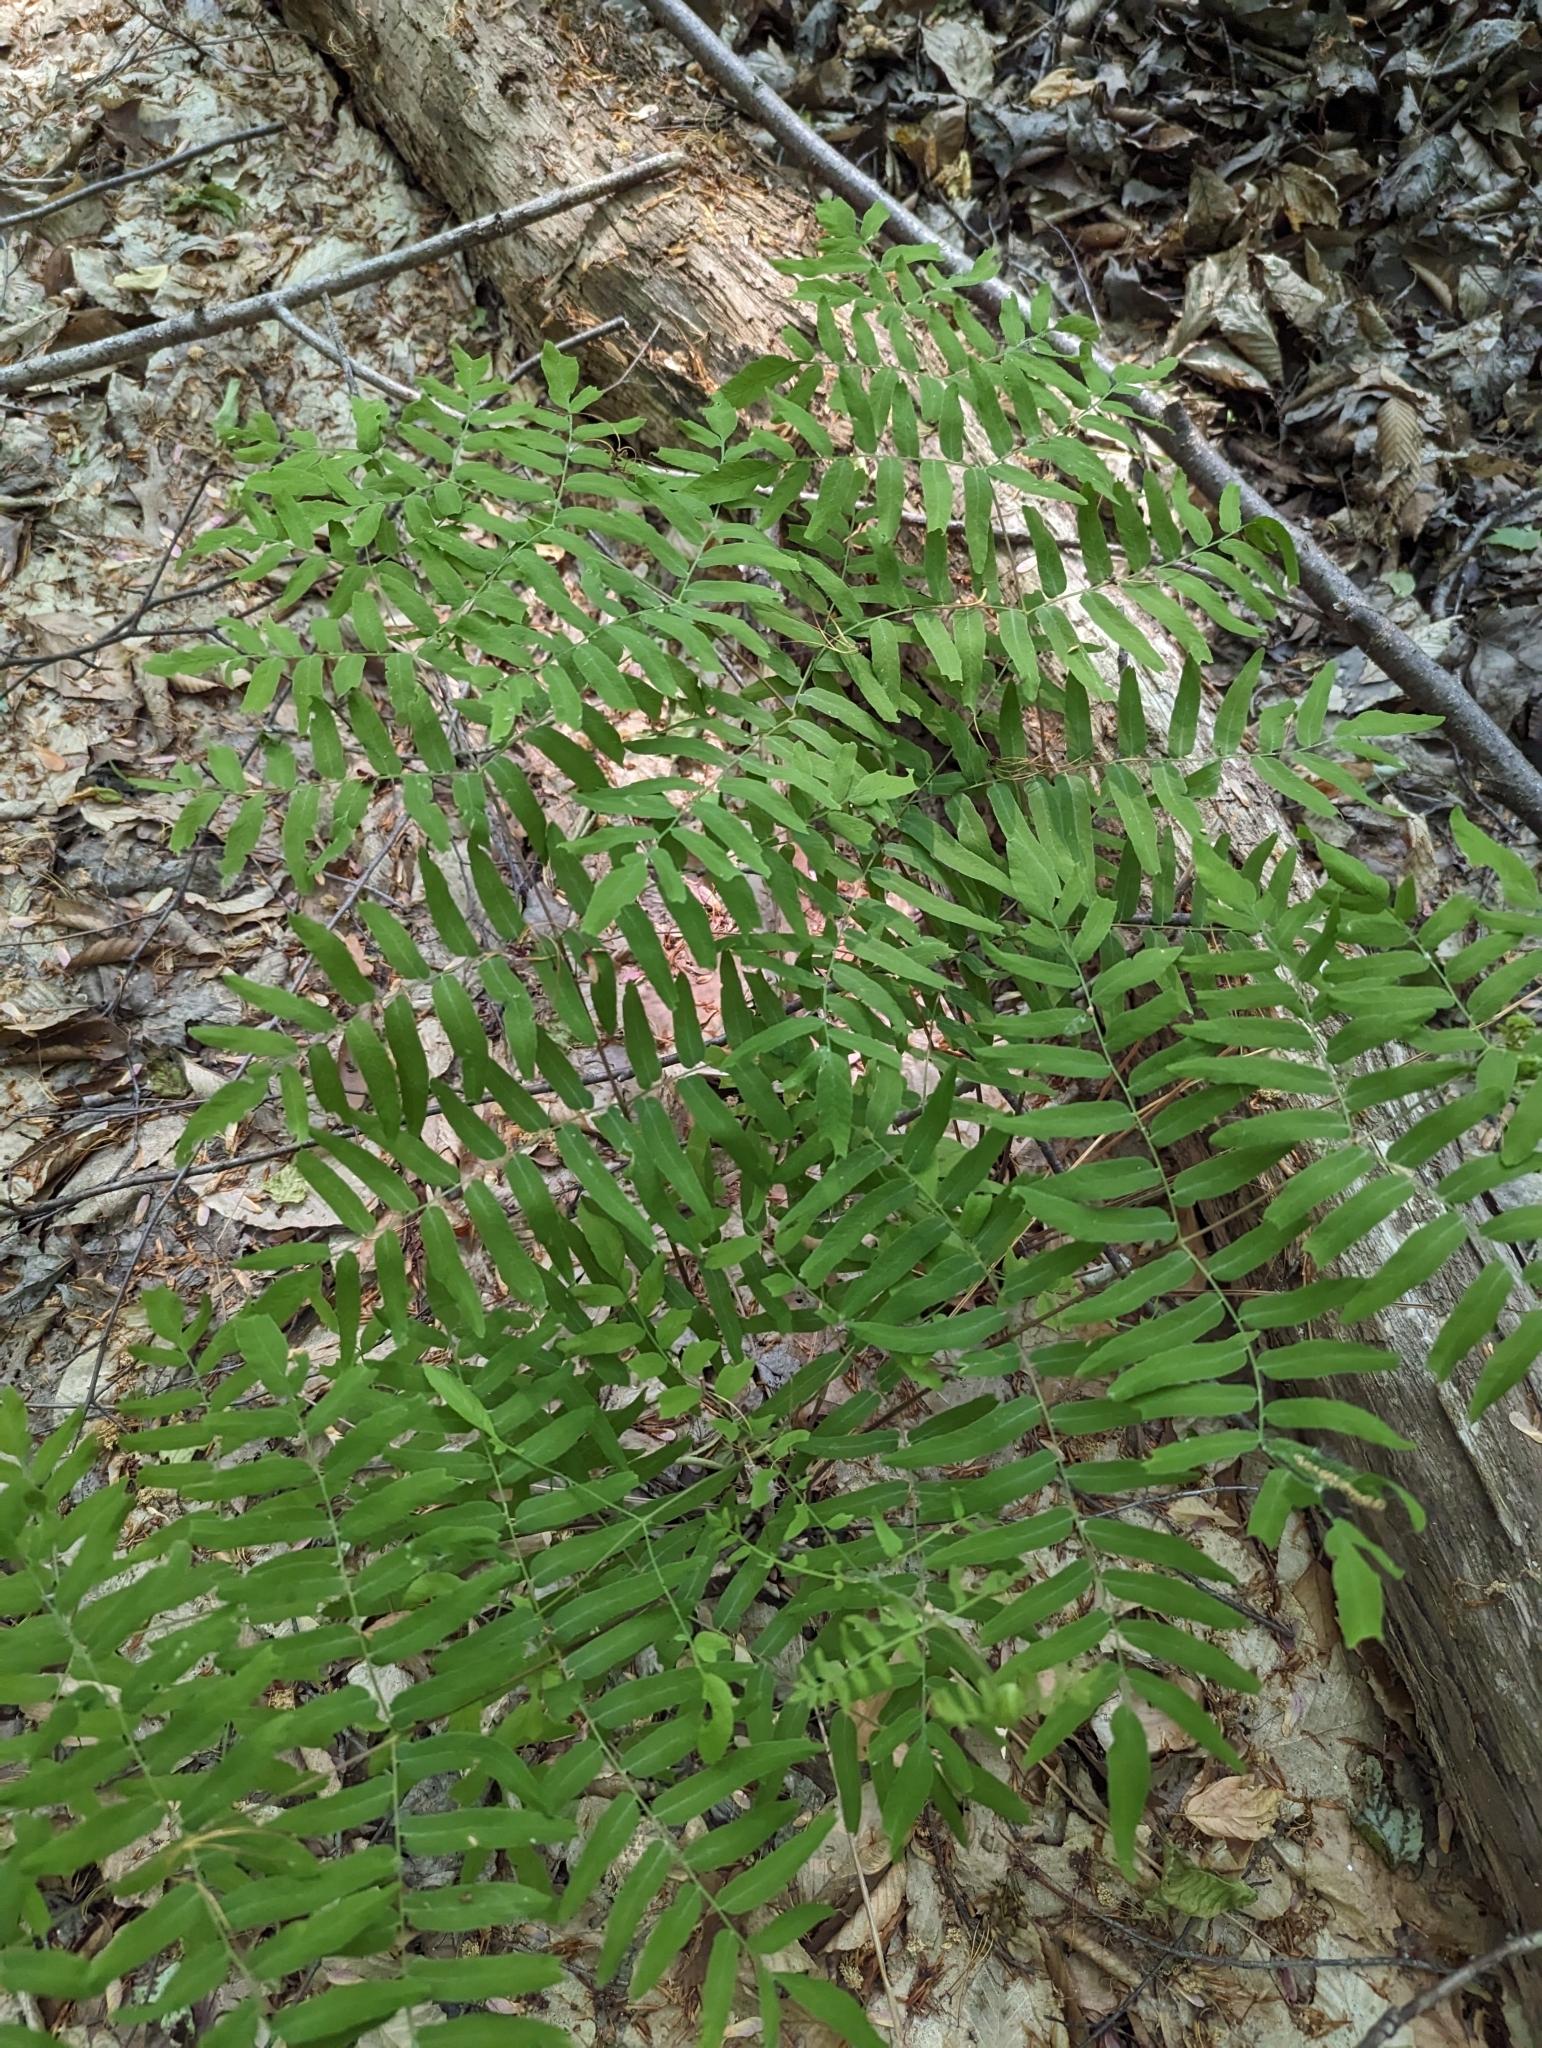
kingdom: Plantae
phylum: Tracheophyta
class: Polypodiopsida
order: Osmundales
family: Osmundaceae
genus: Osmunda
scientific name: Osmunda spectabilis
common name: American royal fern
